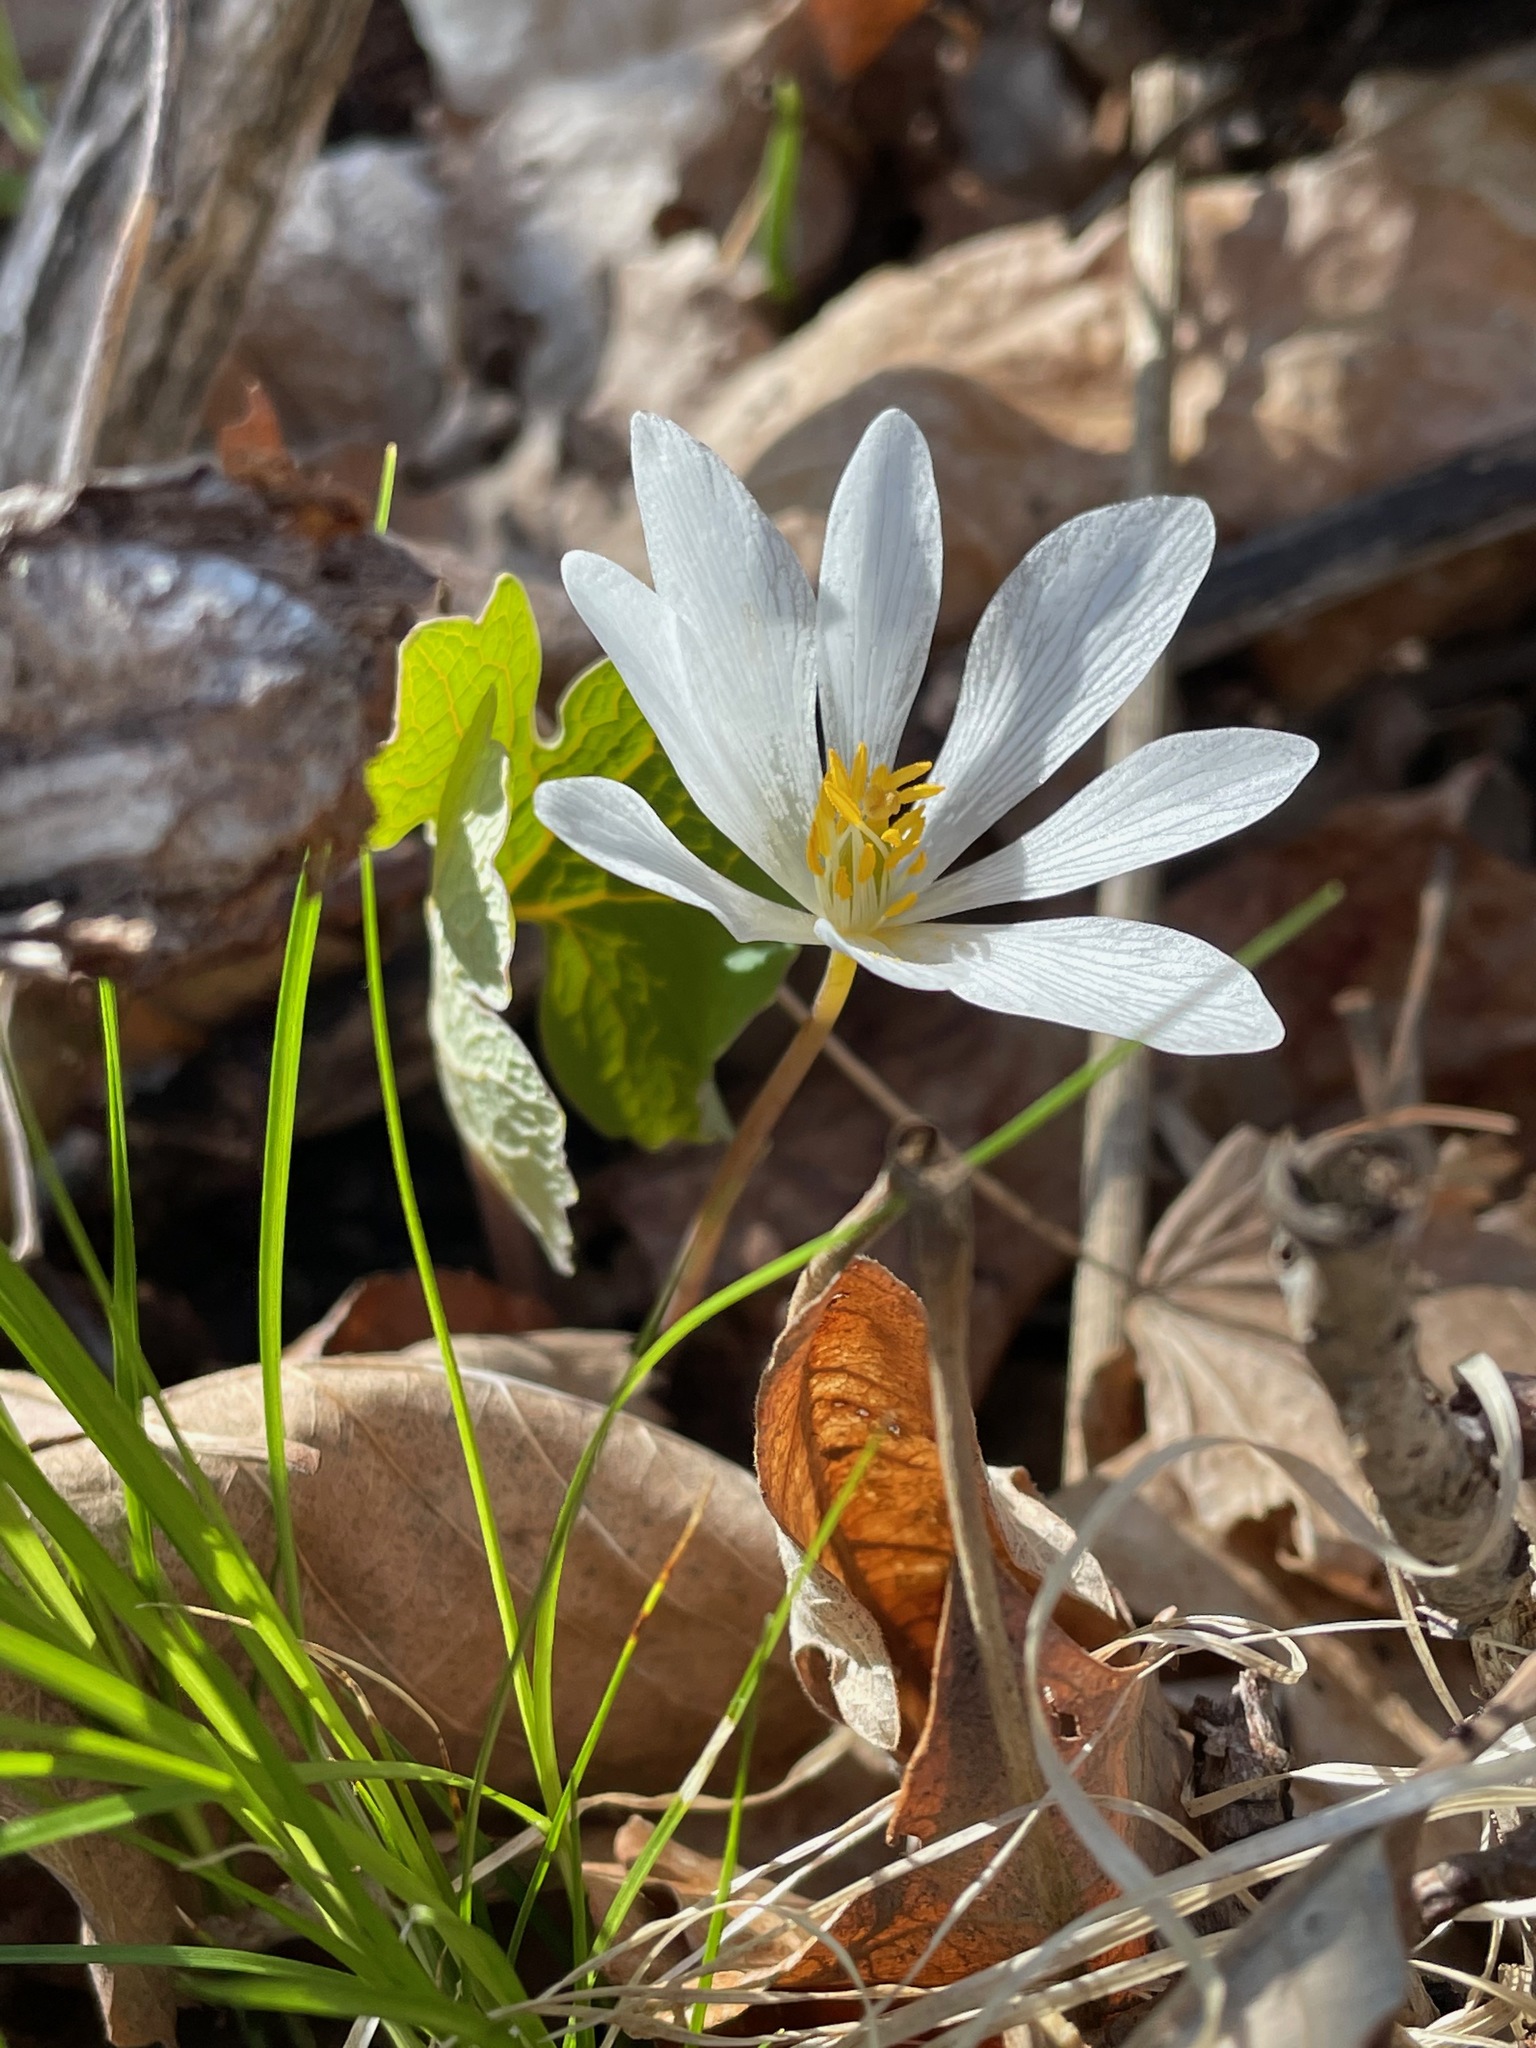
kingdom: Plantae
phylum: Tracheophyta
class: Magnoliopsida
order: Ranunculales
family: Papaveraceae
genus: Sanguinaria
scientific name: Sanguinaria canadensis
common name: Bloodroot
